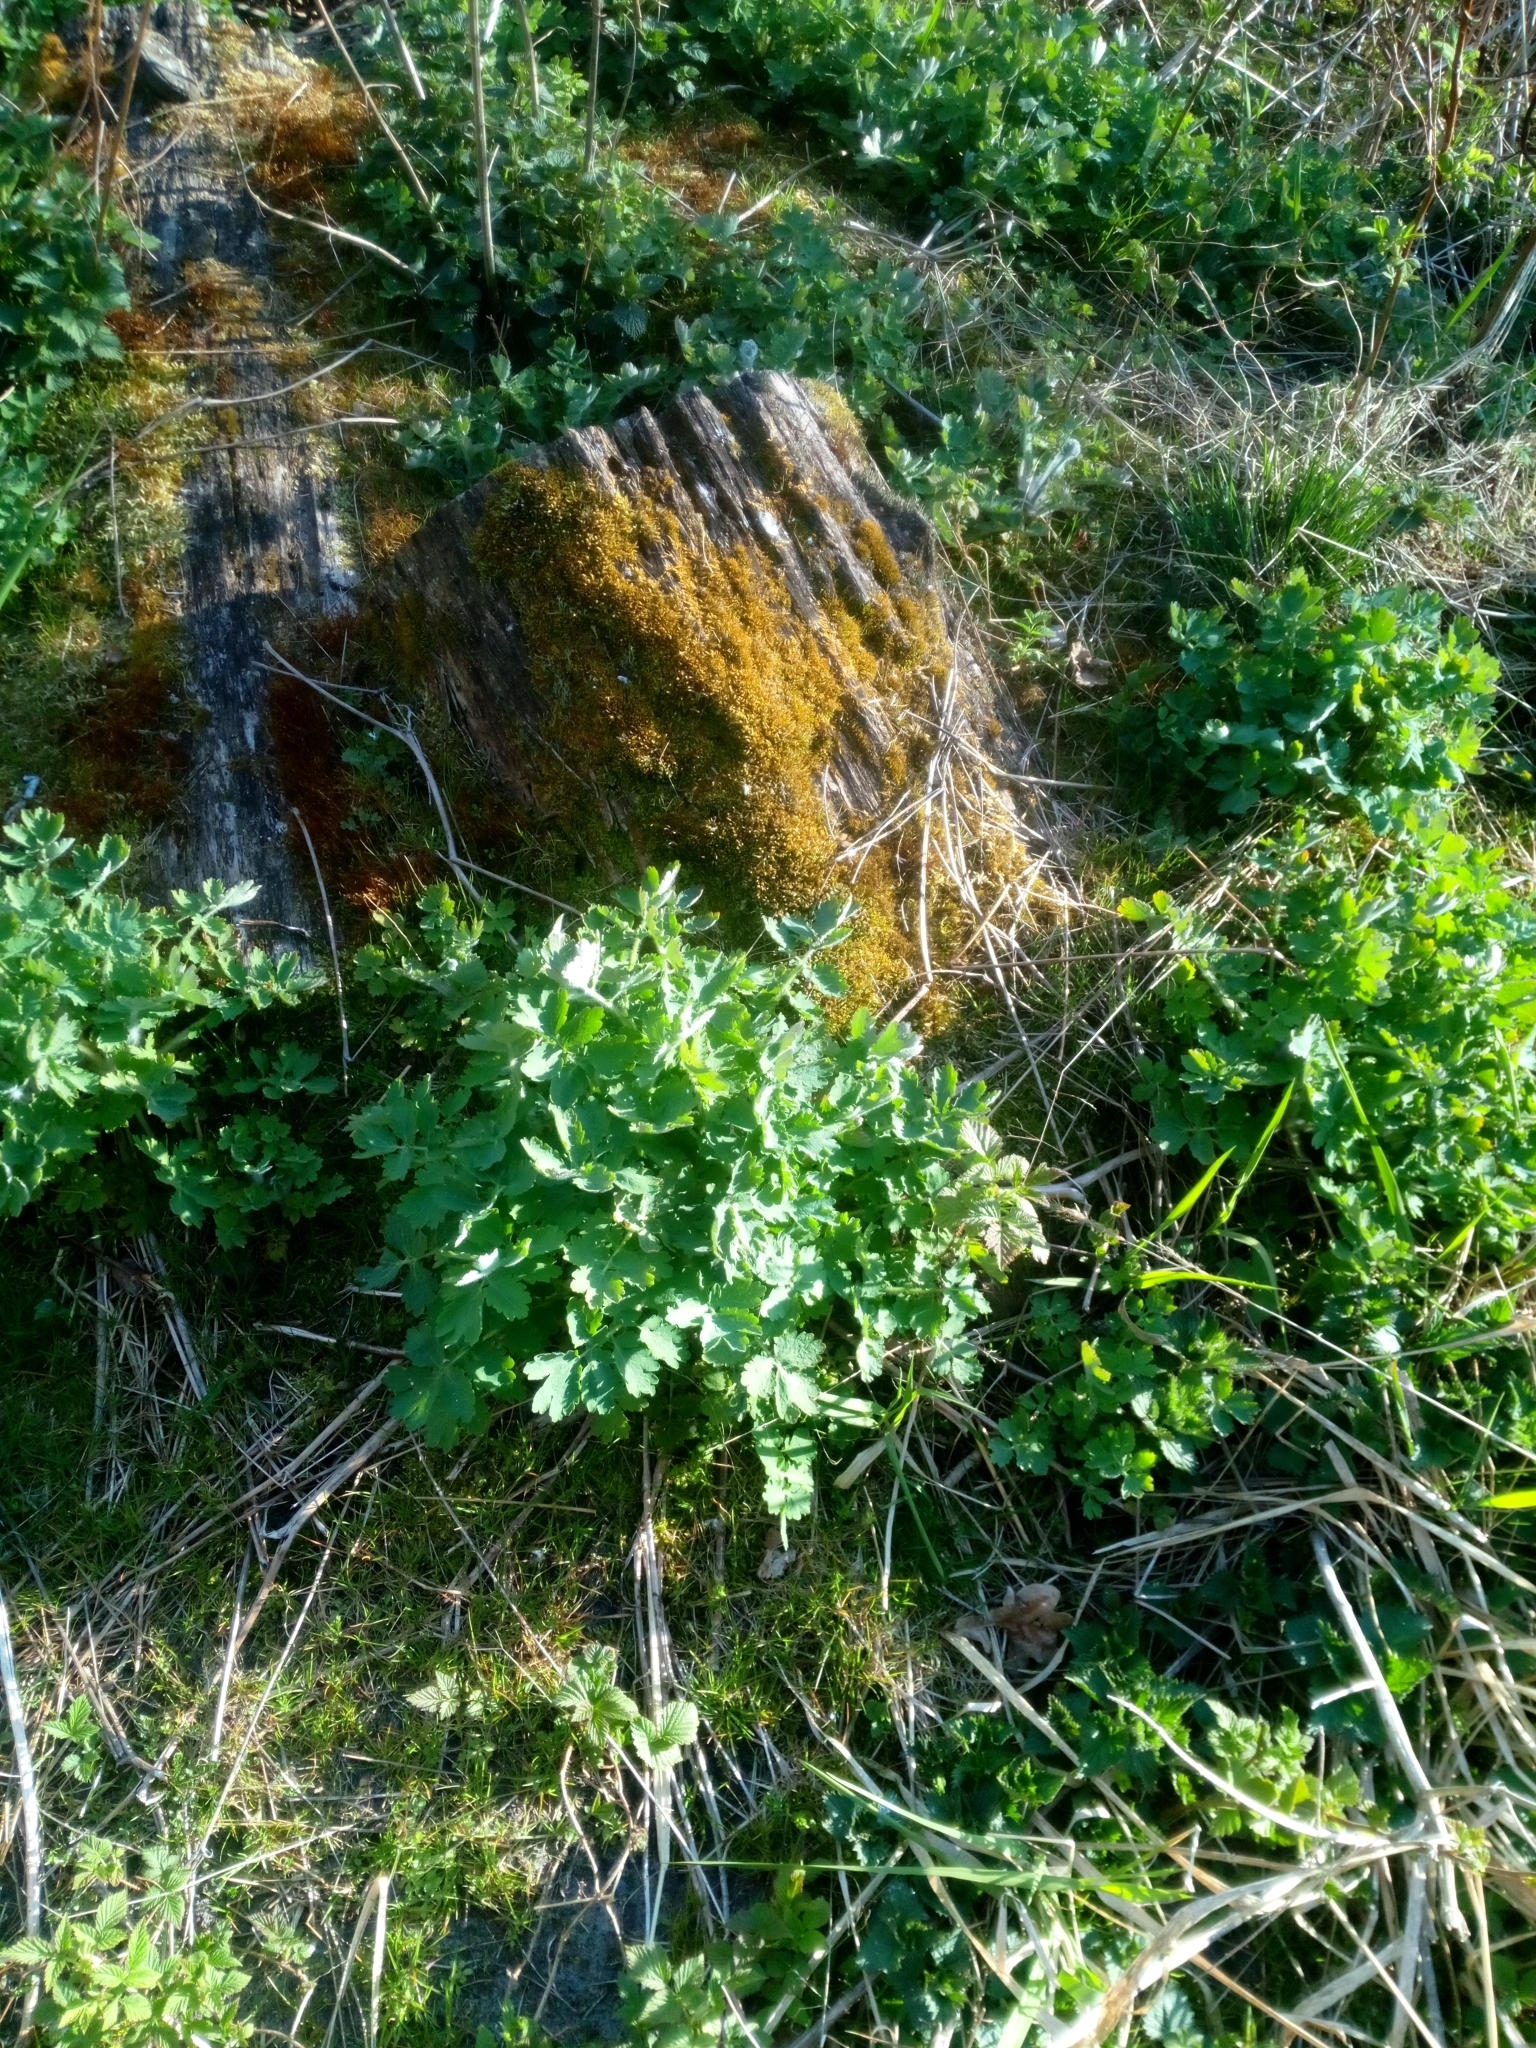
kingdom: Plantae
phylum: Tracheophyta
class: Magnoliopsida
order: Ranunculales
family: Papaveraceae
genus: Chelidonium
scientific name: Chelidonium majus
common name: Greater celandine
